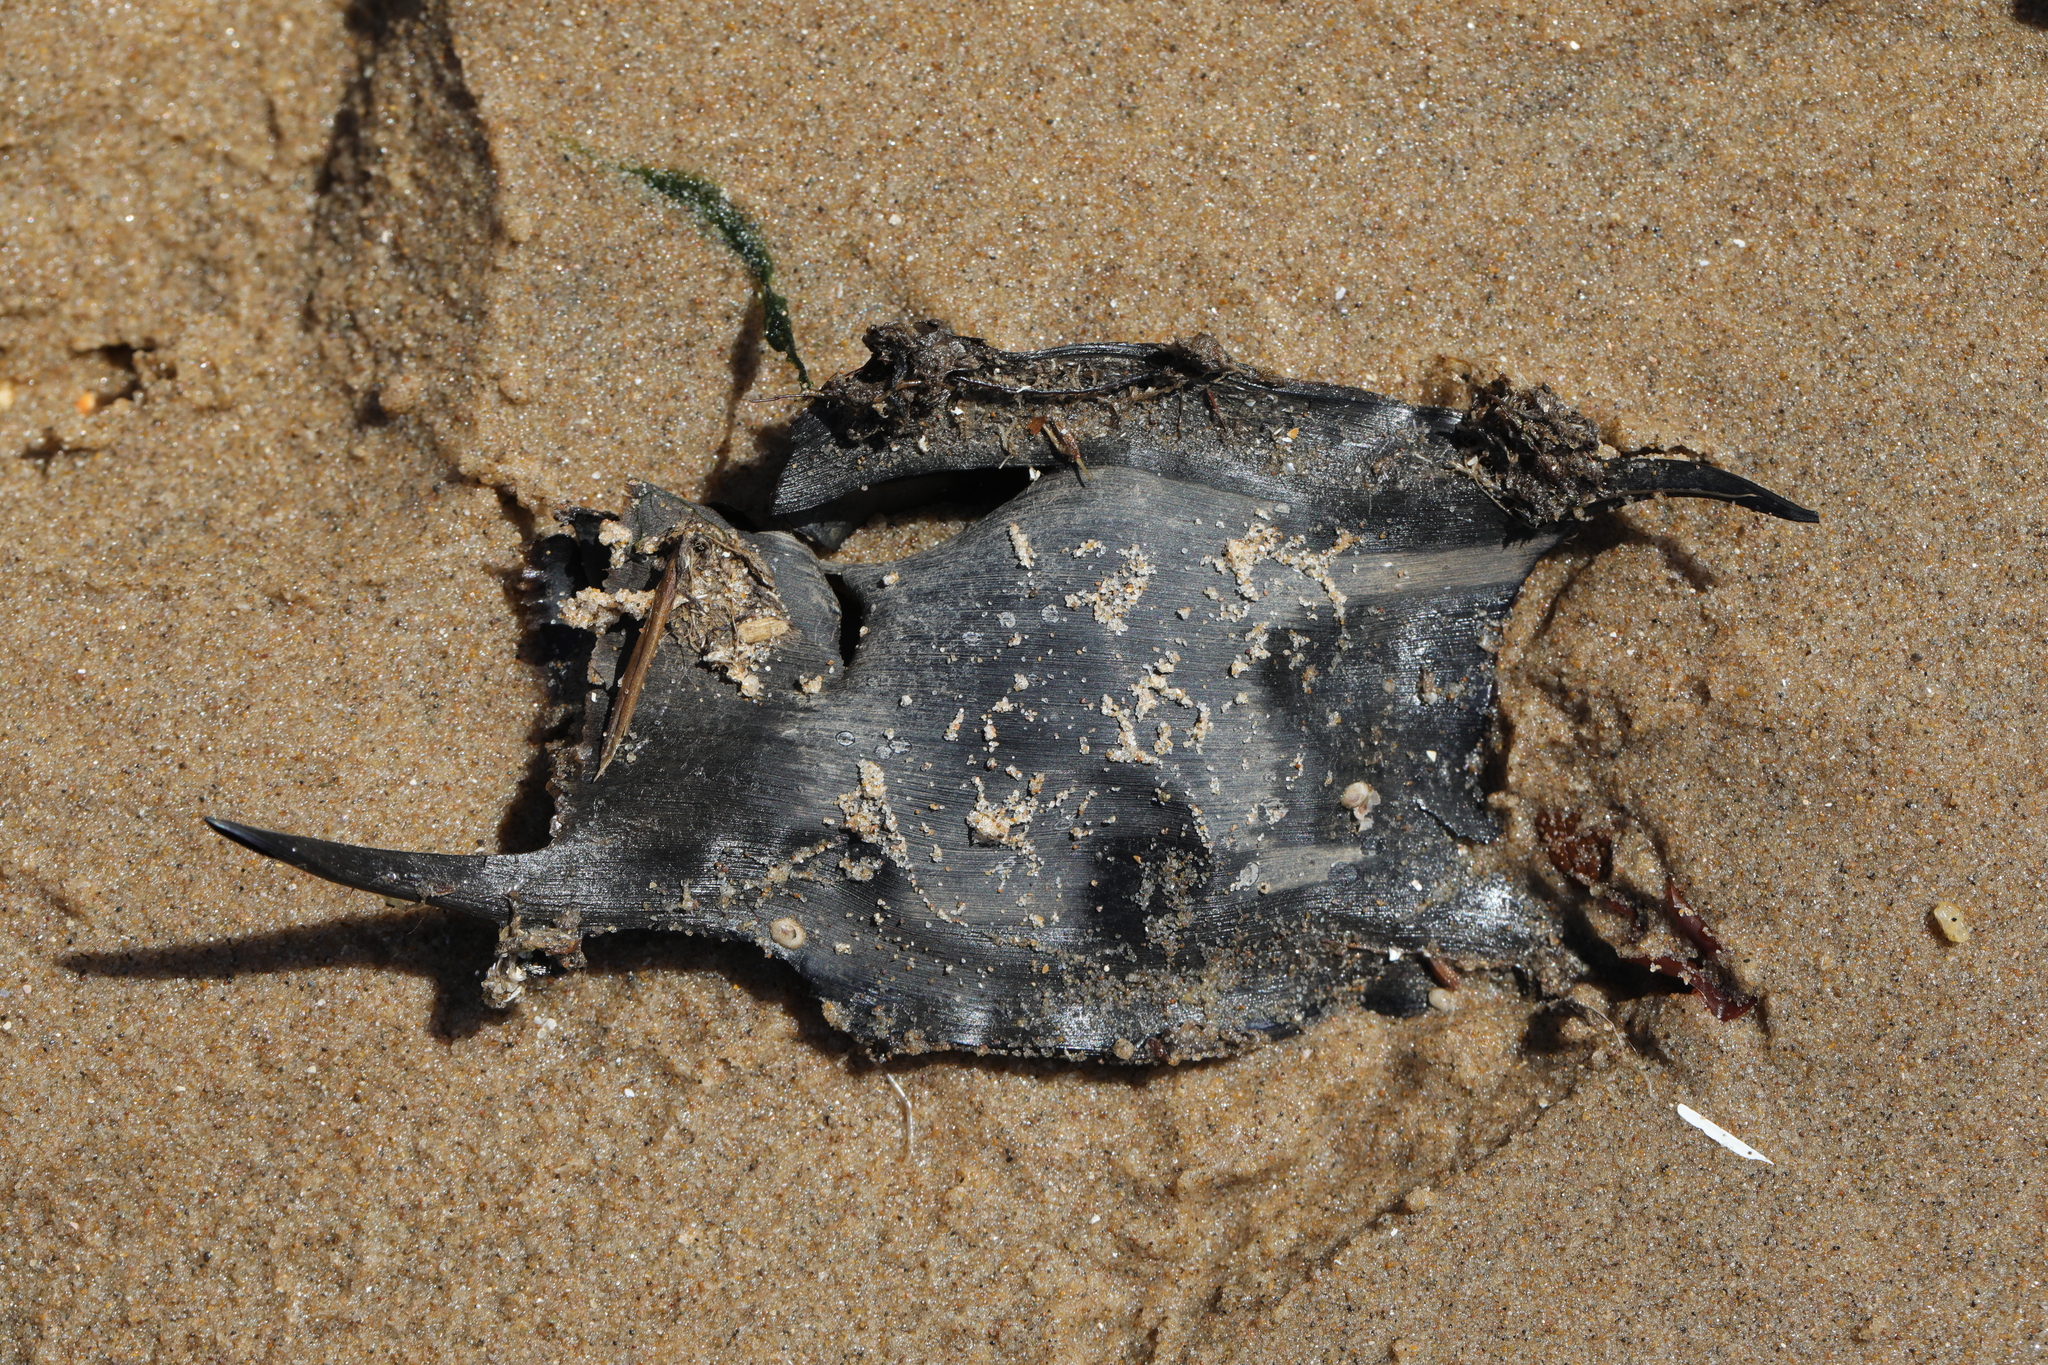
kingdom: Animalia
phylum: Chordata
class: Elasmobranchii
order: Rajiformes
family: Rajidae
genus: Raja
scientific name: Raja clavata
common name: Thornback ray
